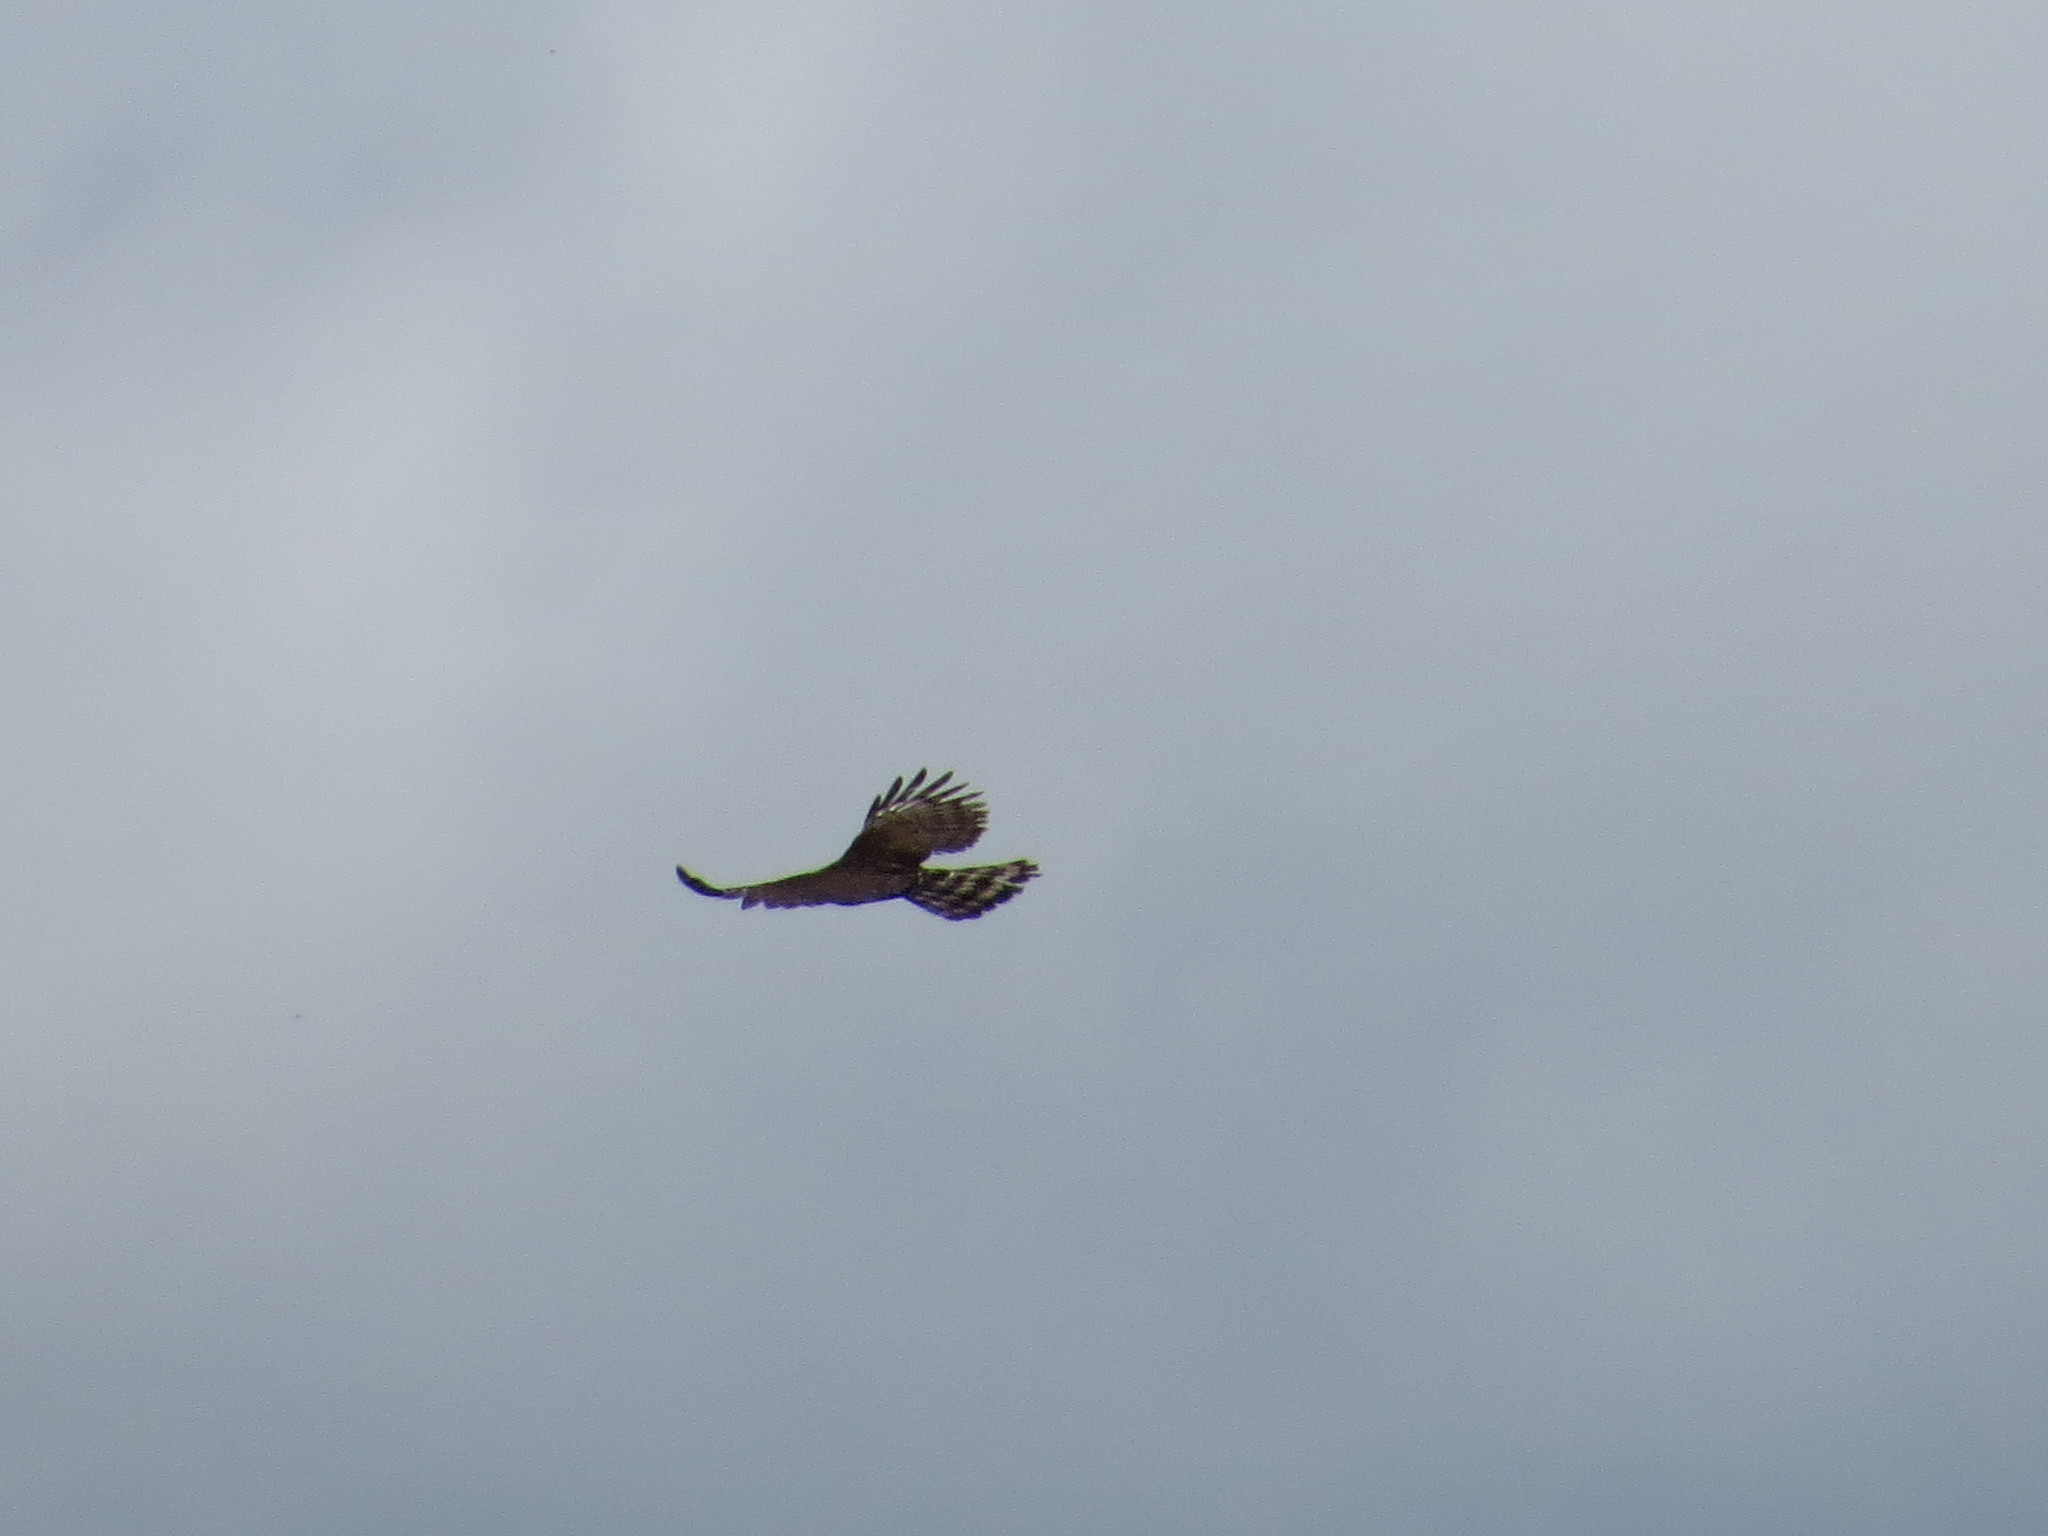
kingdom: Animalia
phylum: Chordata
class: Aves
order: Accipitriformes
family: Accipitridae
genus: Spizaetus
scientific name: Spizaetus tyrannus
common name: Black hawk-eagle
